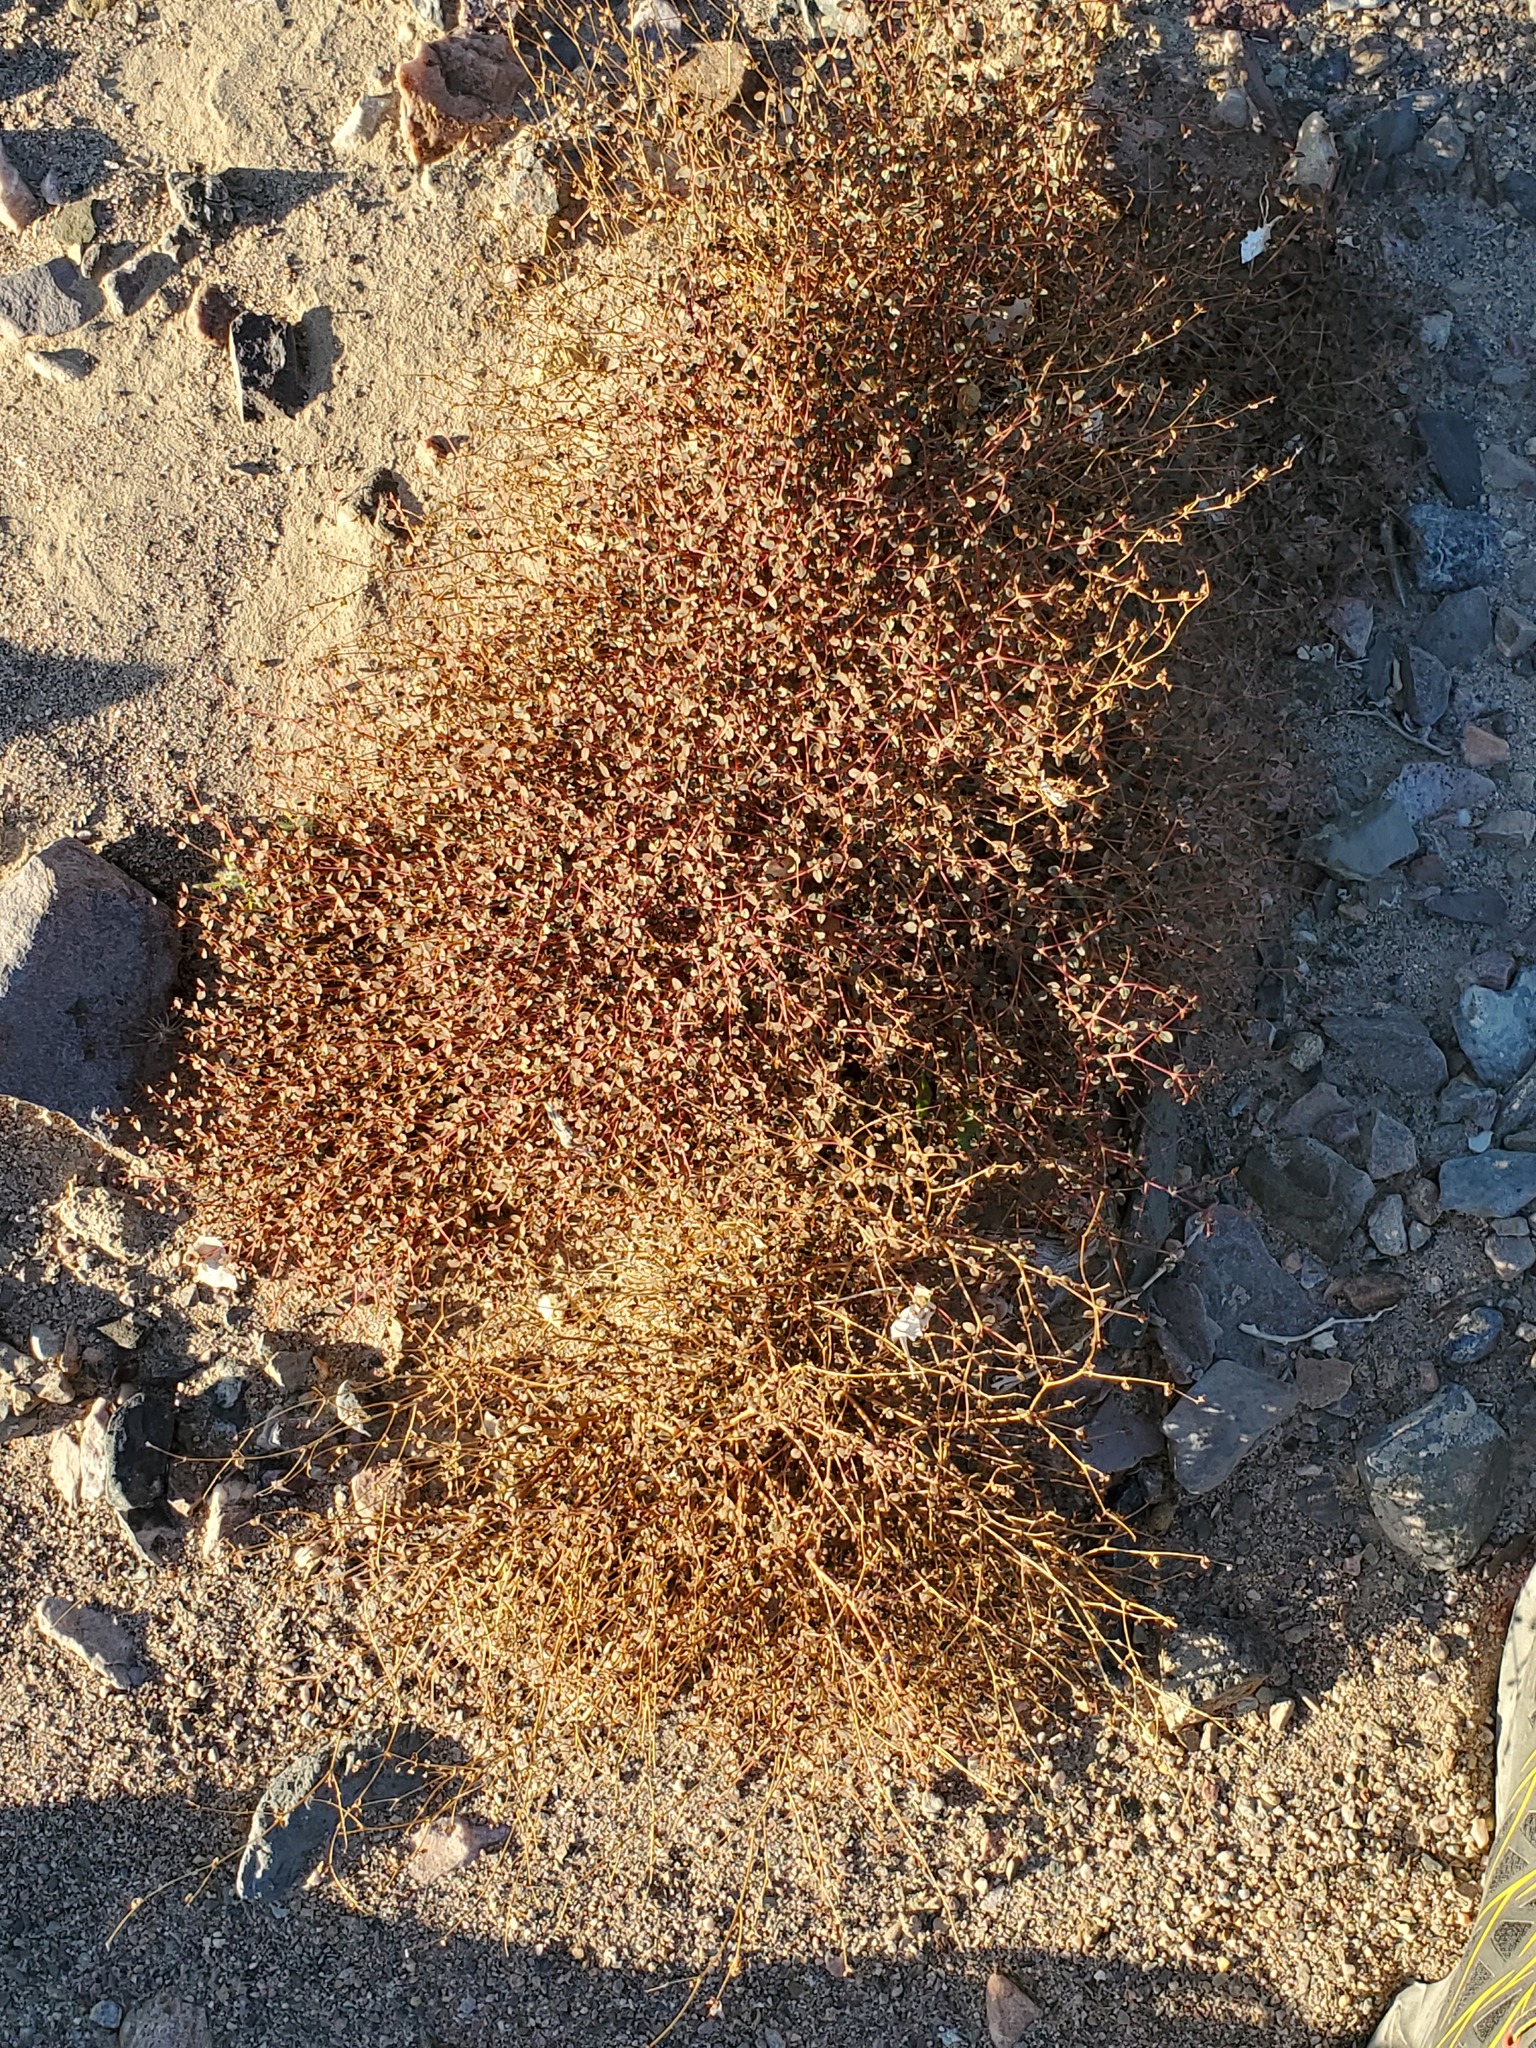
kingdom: Plantae
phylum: Tracheophyta
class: Magnoliopsida
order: Malpighiales
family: Euphorbiaceae
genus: Euphorbia
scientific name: Euphorbia parishii
